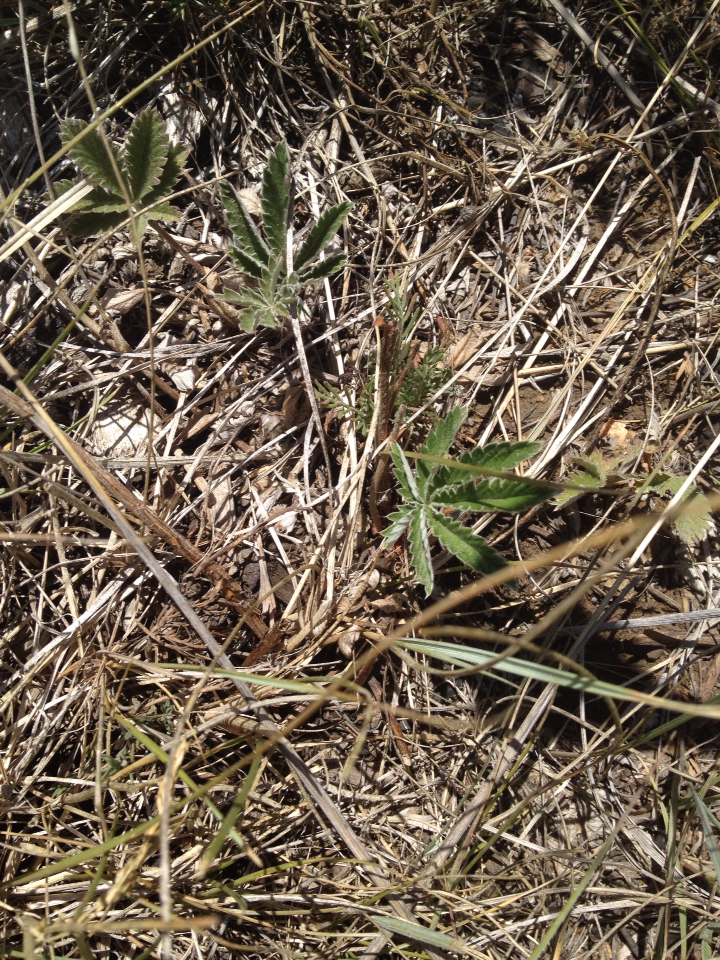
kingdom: Plantae
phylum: Tracheophyta
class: Magnoliopsida
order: Rosales
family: Rosaceae
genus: Potentilla
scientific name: Potentilla pulcherrima
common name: Beautiful cinquefoil
